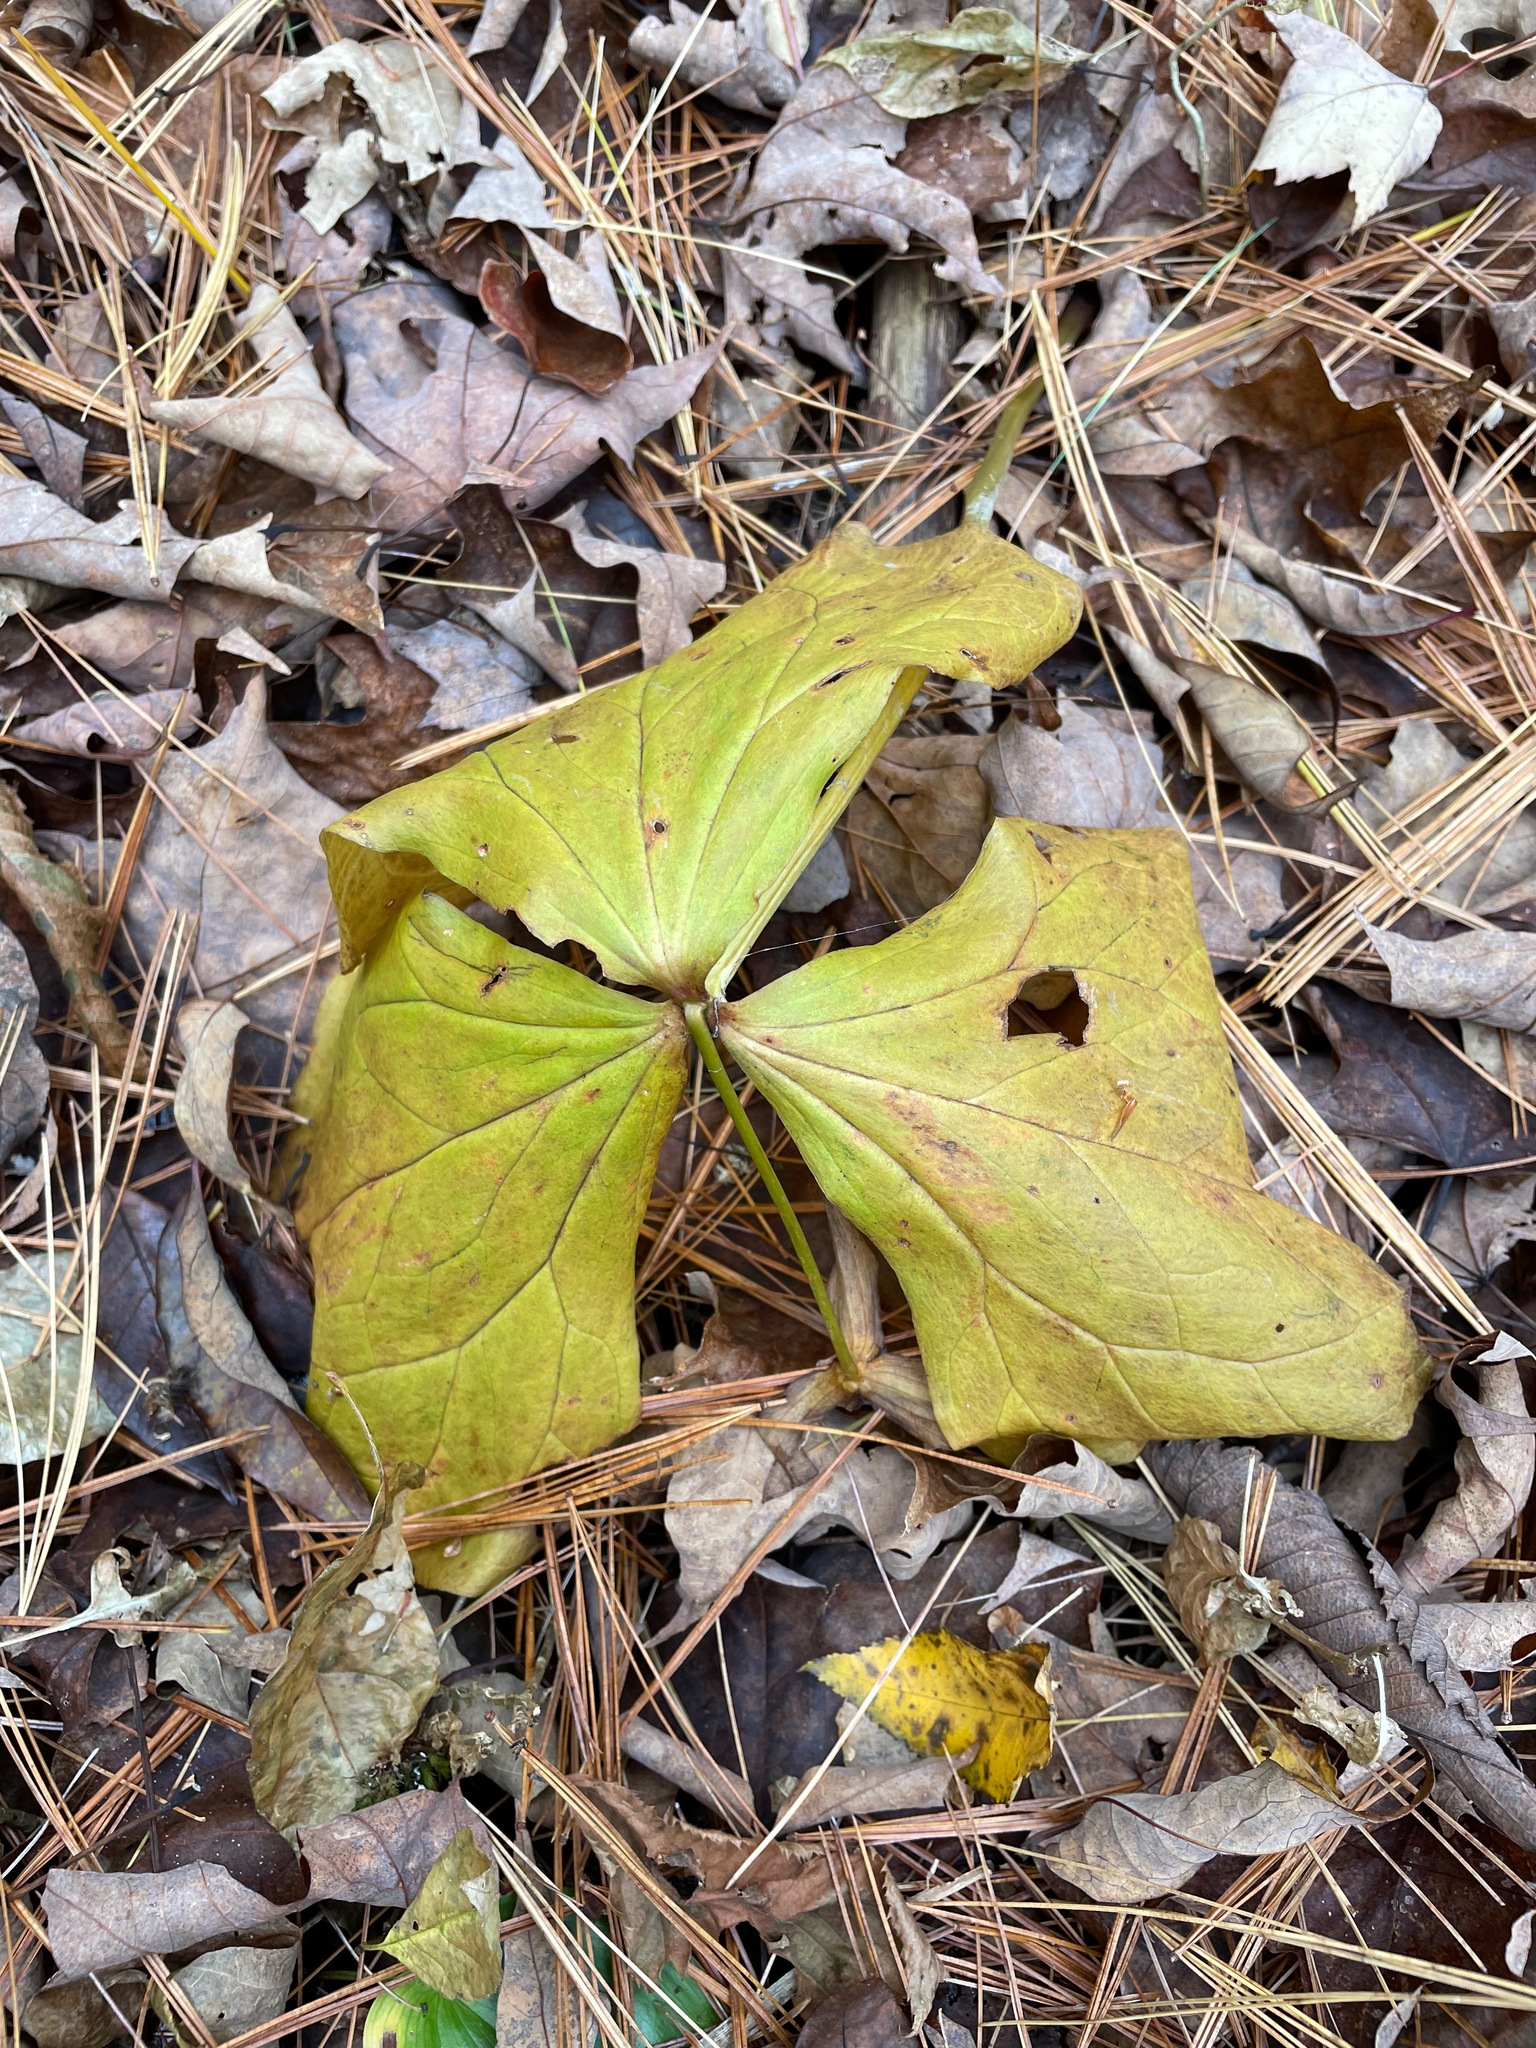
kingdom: Plantae
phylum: Tracheophyta
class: Liliopsida
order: Liliales
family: Melanthiaceae
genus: Trillium
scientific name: Trillium erectum
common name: Purple trillium
